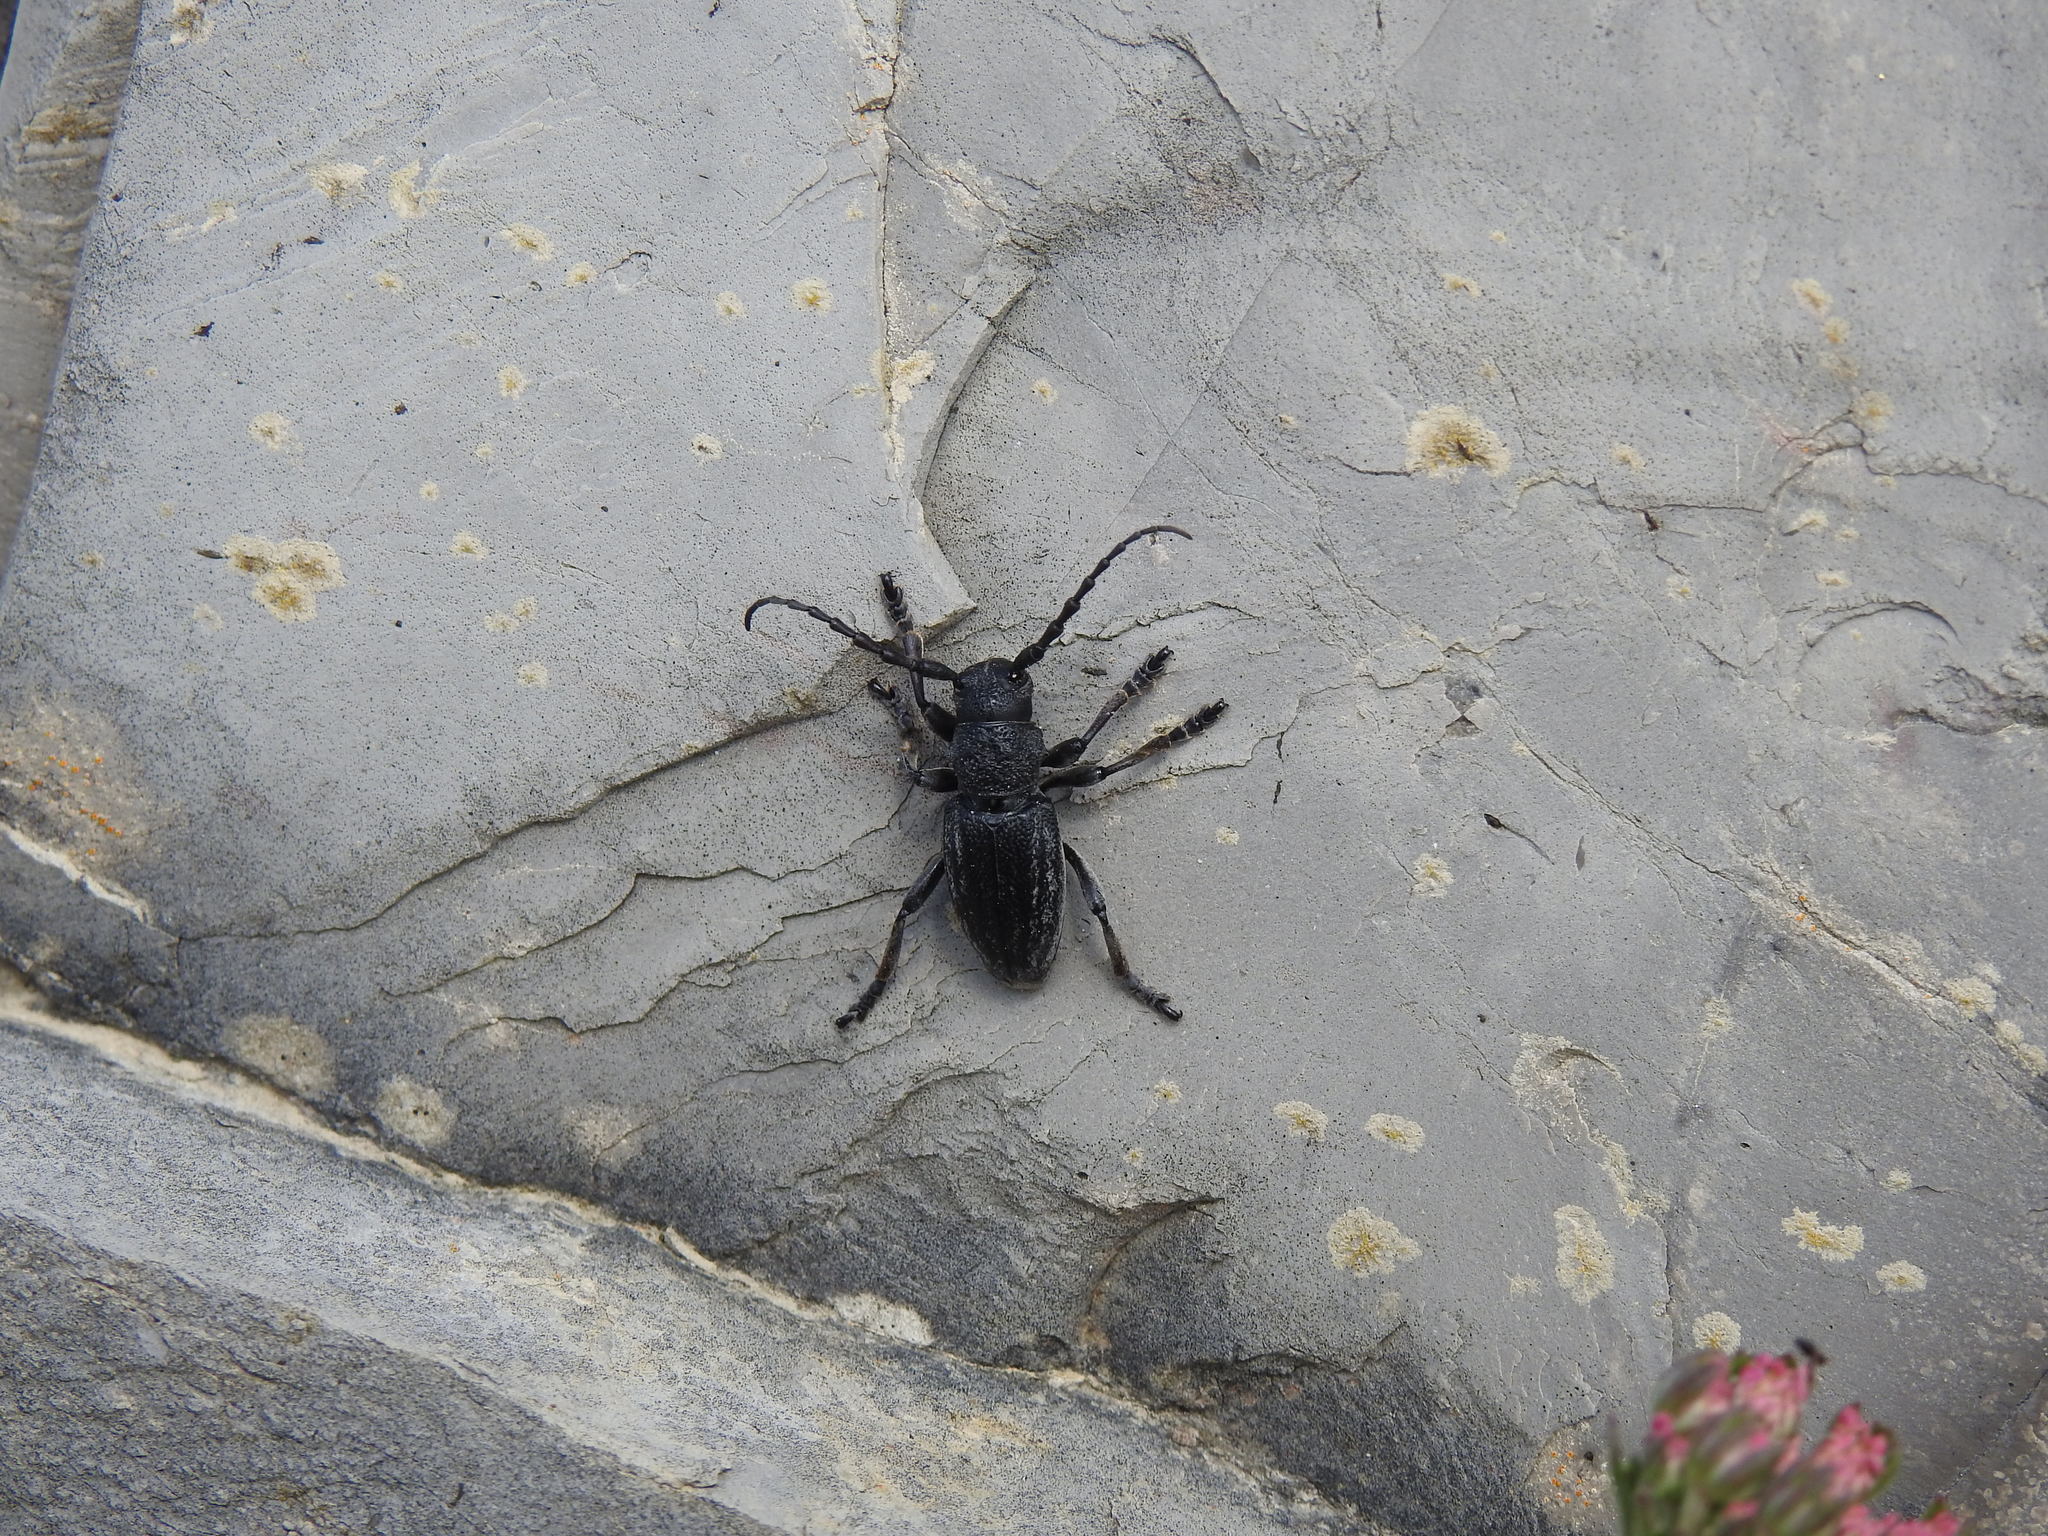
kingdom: Animalia
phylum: Arthropoda
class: Insecta
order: Coleoptera
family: Cerambycidae
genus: Iberodorcadion
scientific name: Iberodorcadion seoanei
